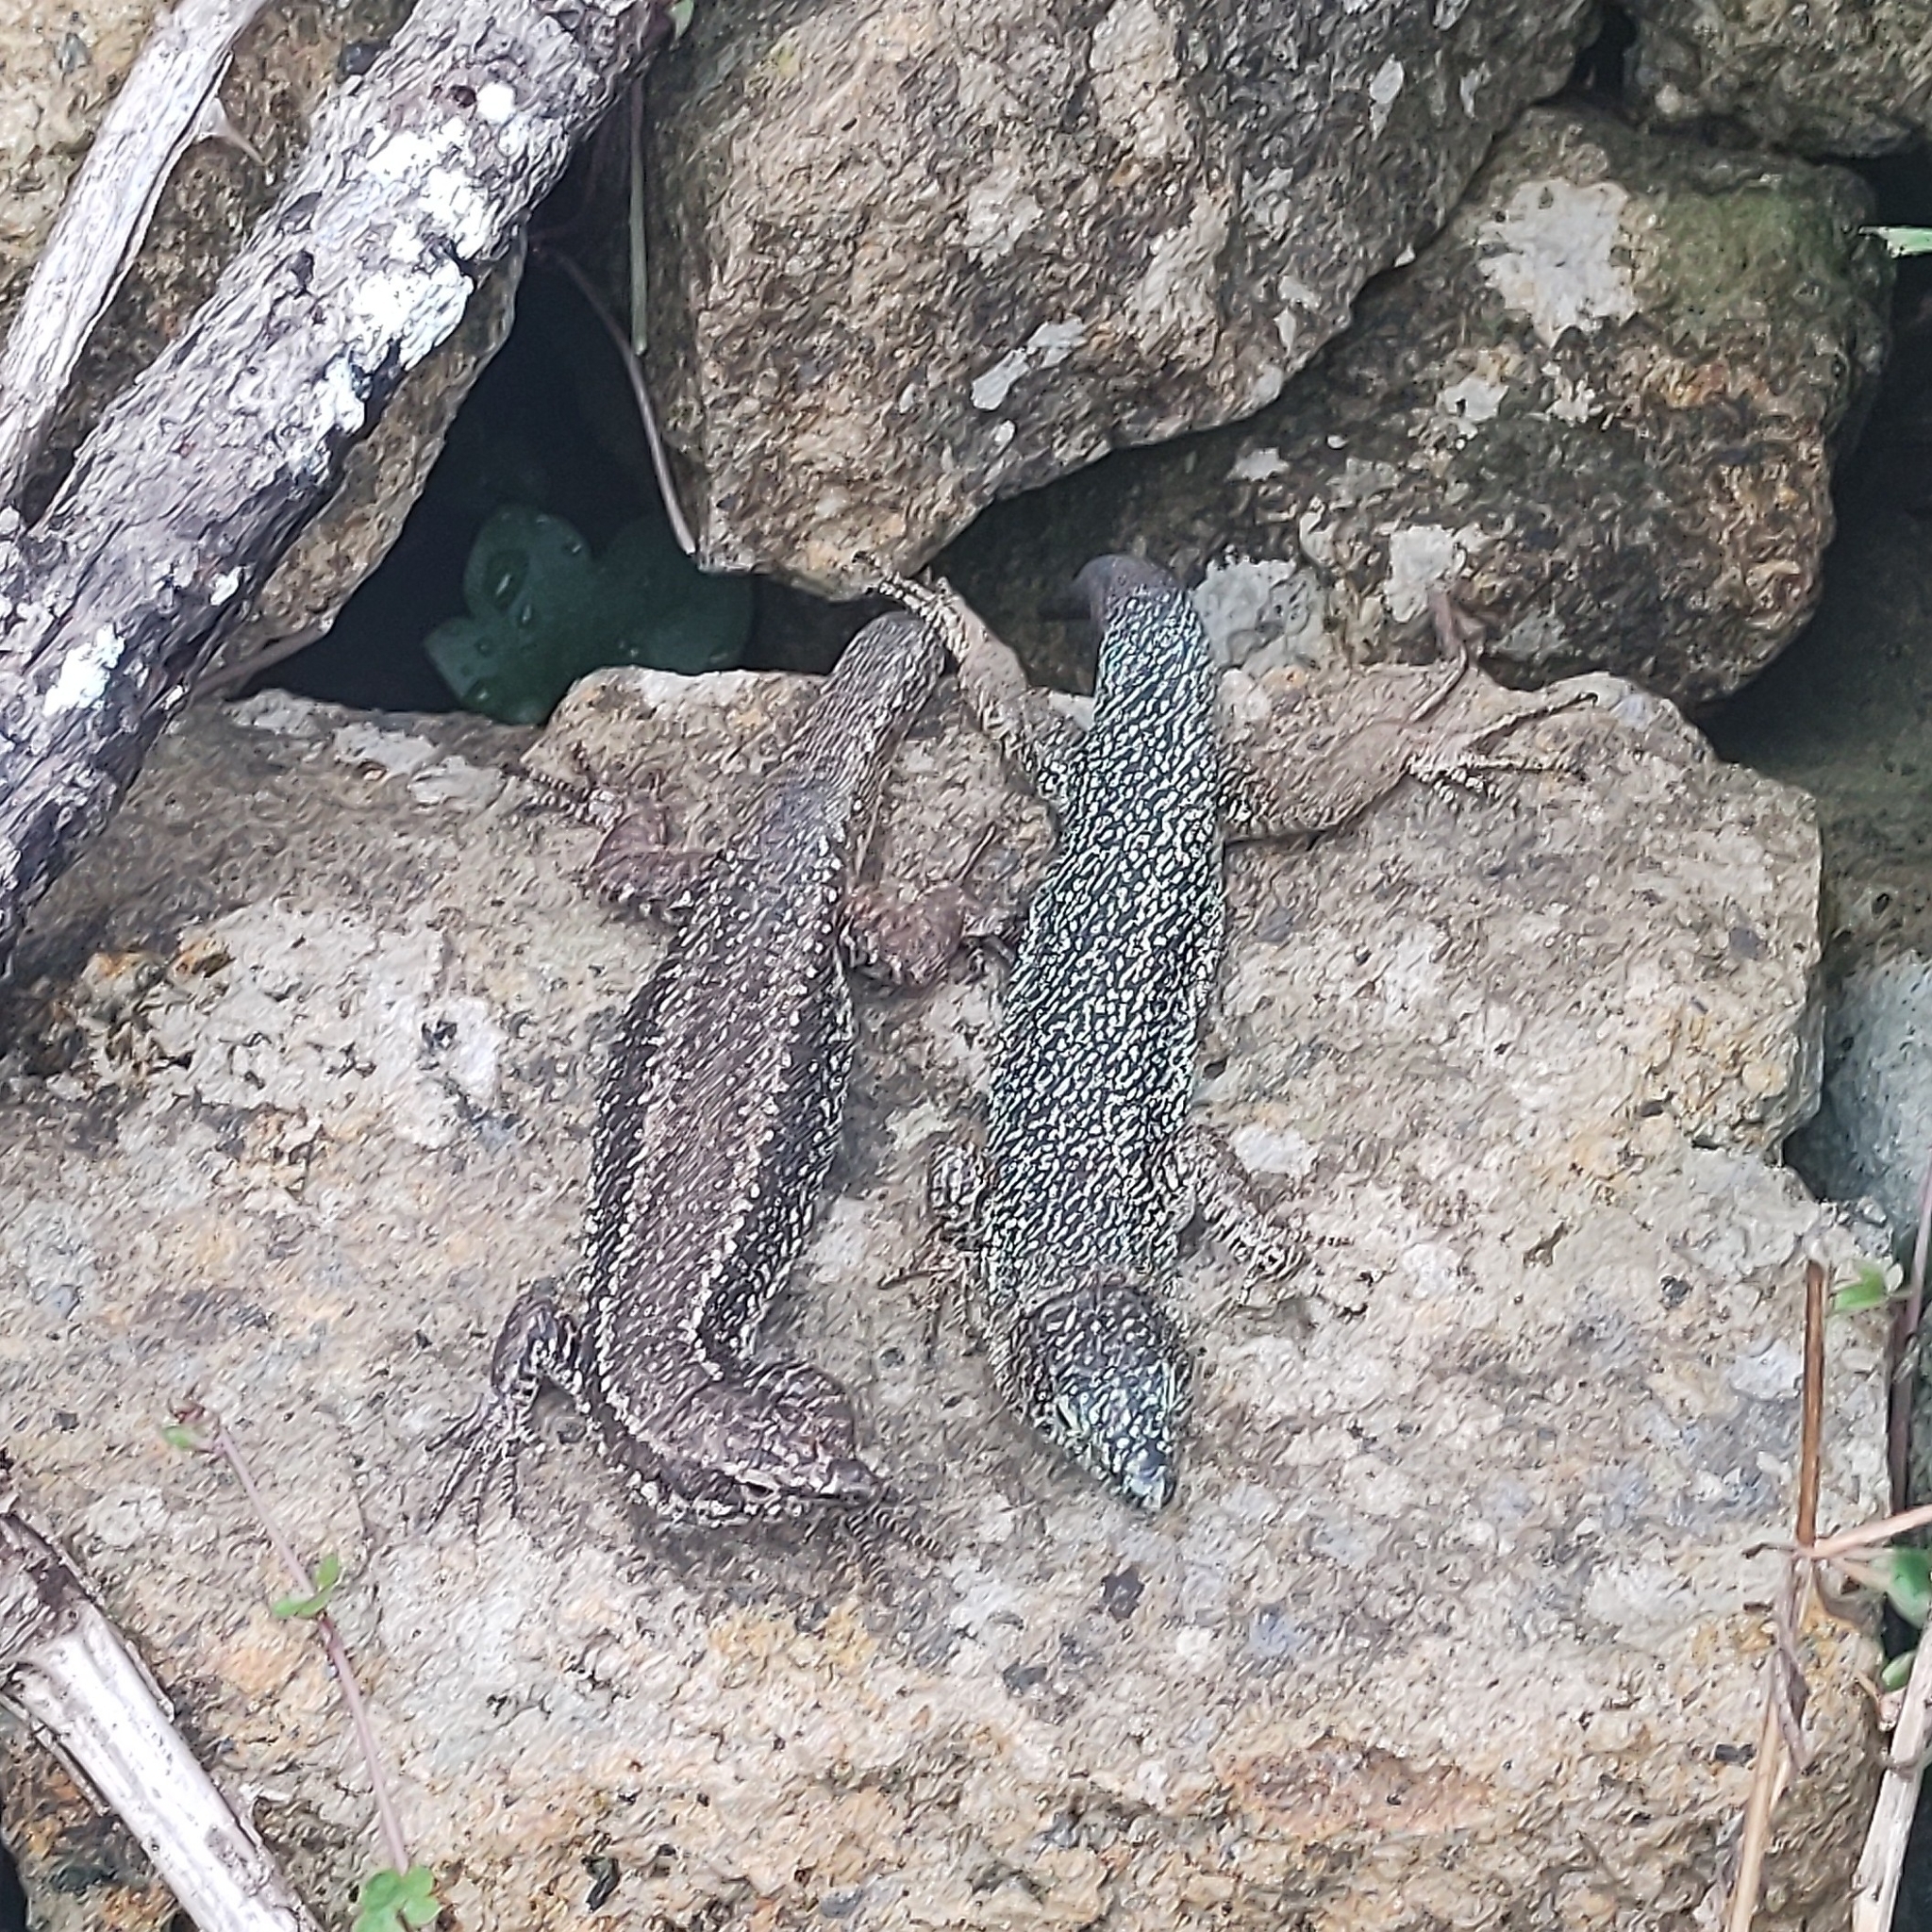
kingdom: Animalia
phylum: Chordata
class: Squamata
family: Lacertidae
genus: Teira
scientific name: Teira dugesii
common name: Madeira lizard
